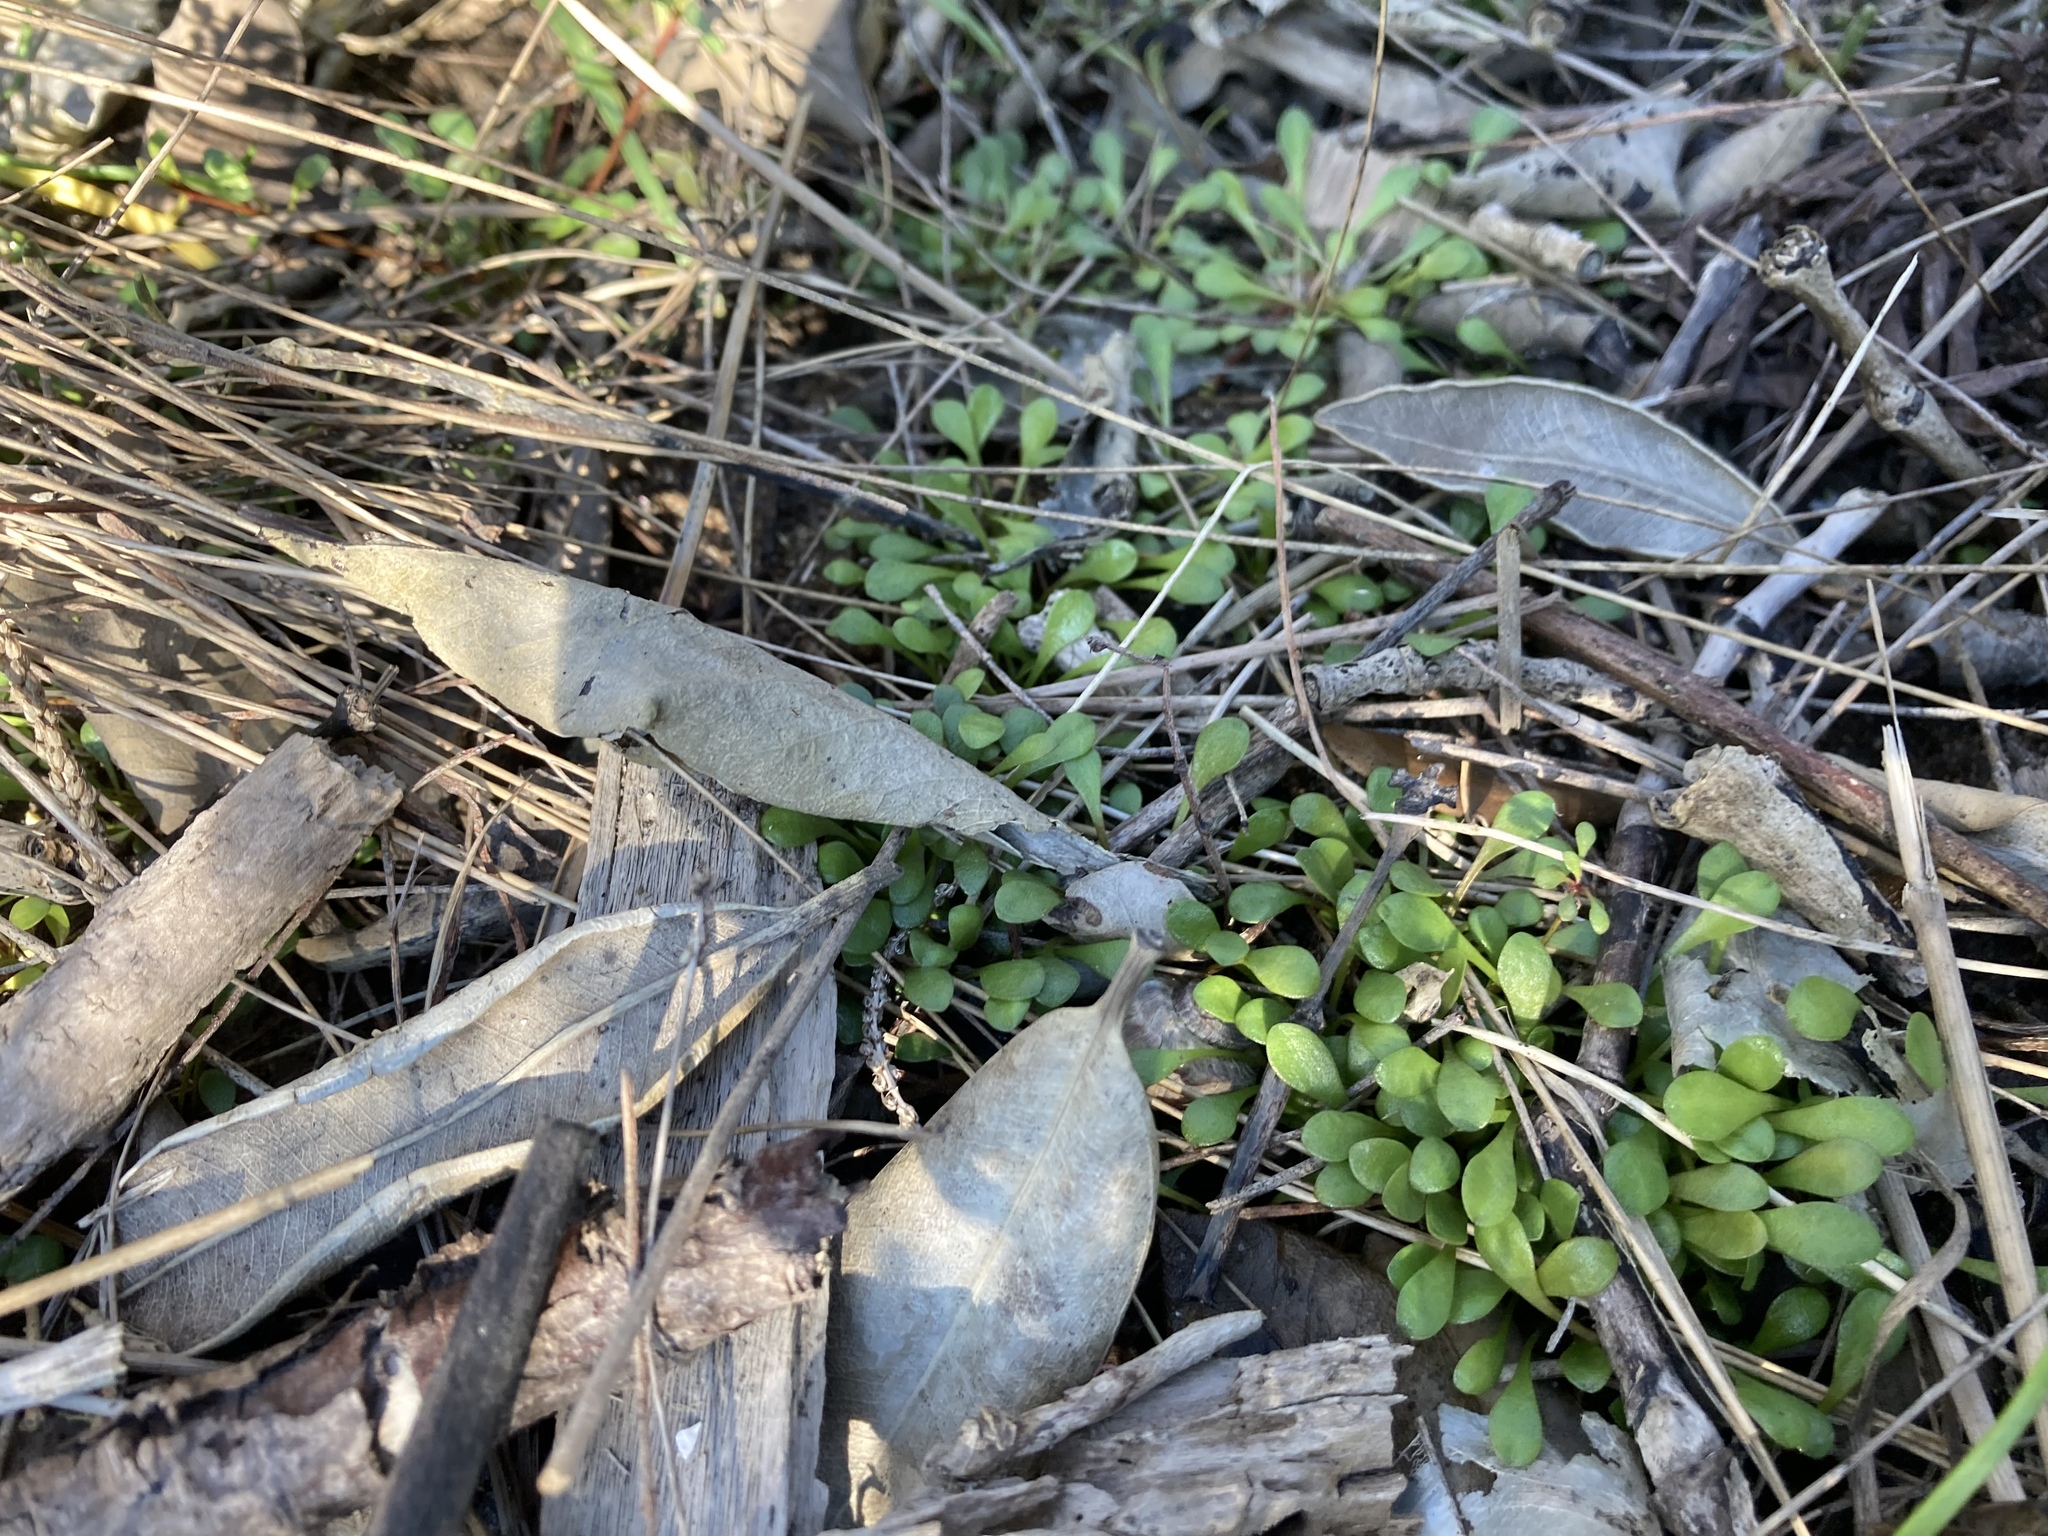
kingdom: Plantae
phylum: Tracheophyta
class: Magnoliopsida
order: Asterales
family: Goodeniaceae
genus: Goodenia
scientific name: Goodenia radicans
